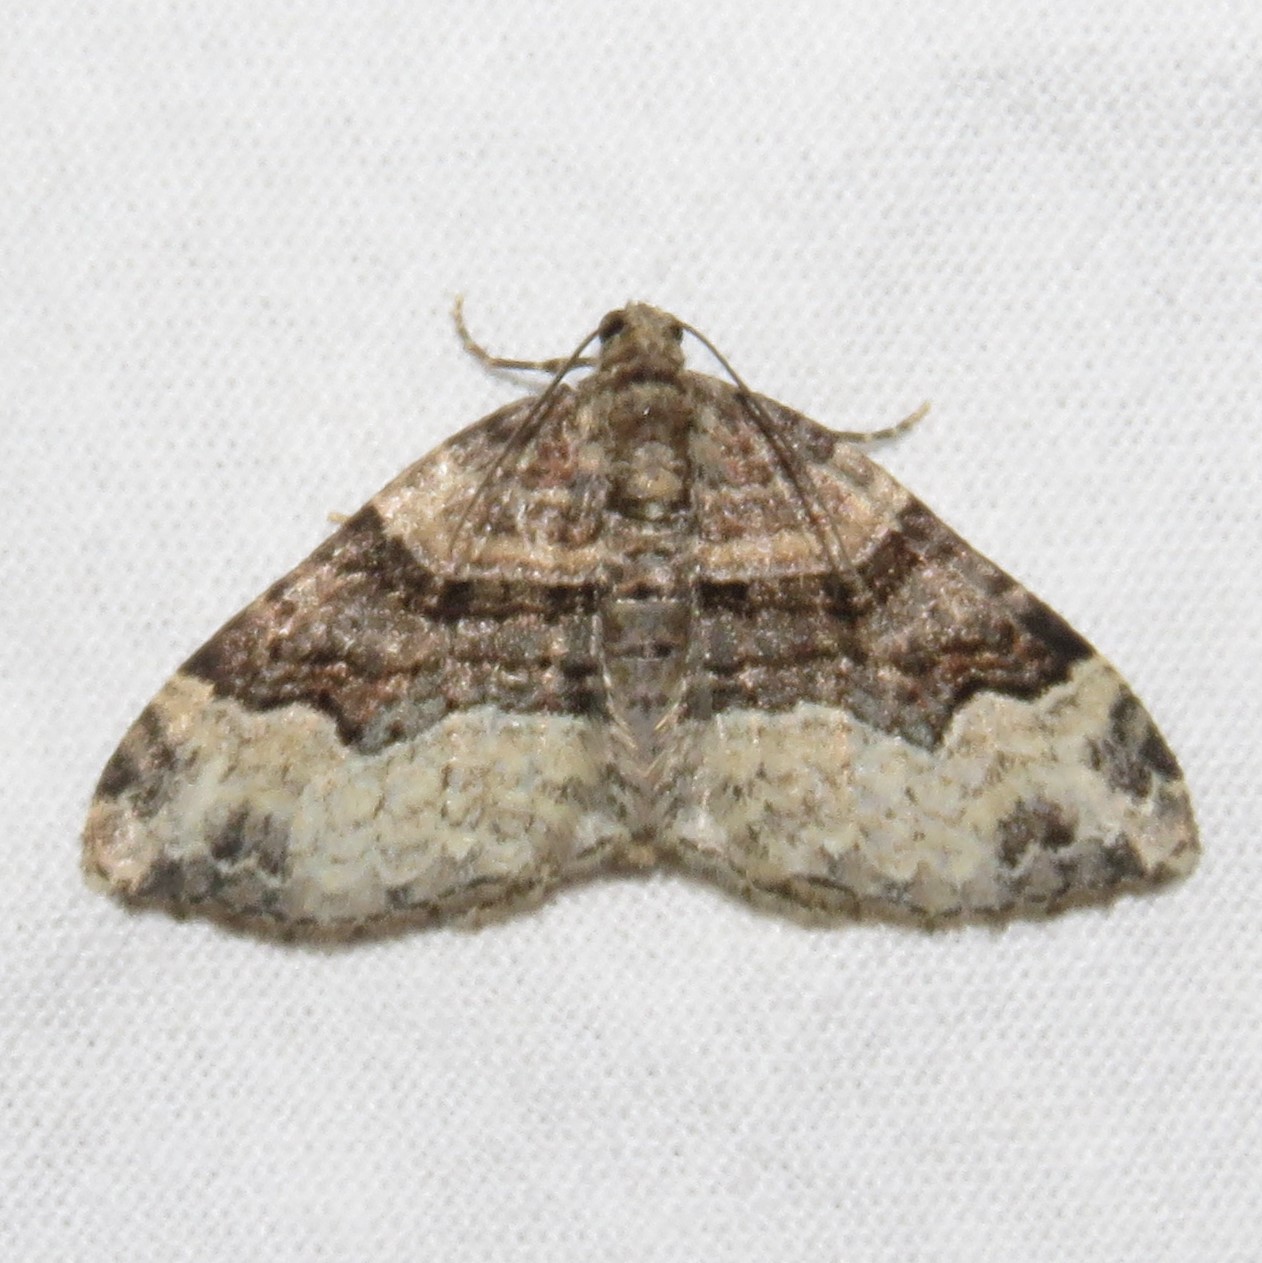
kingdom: Animalia
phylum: Arthropoda
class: Insecta
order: Lepidoptera
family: Geometridae
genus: Xanthorhoe
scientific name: Xanthorhoe lacustrata
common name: Toothed brown carpet
